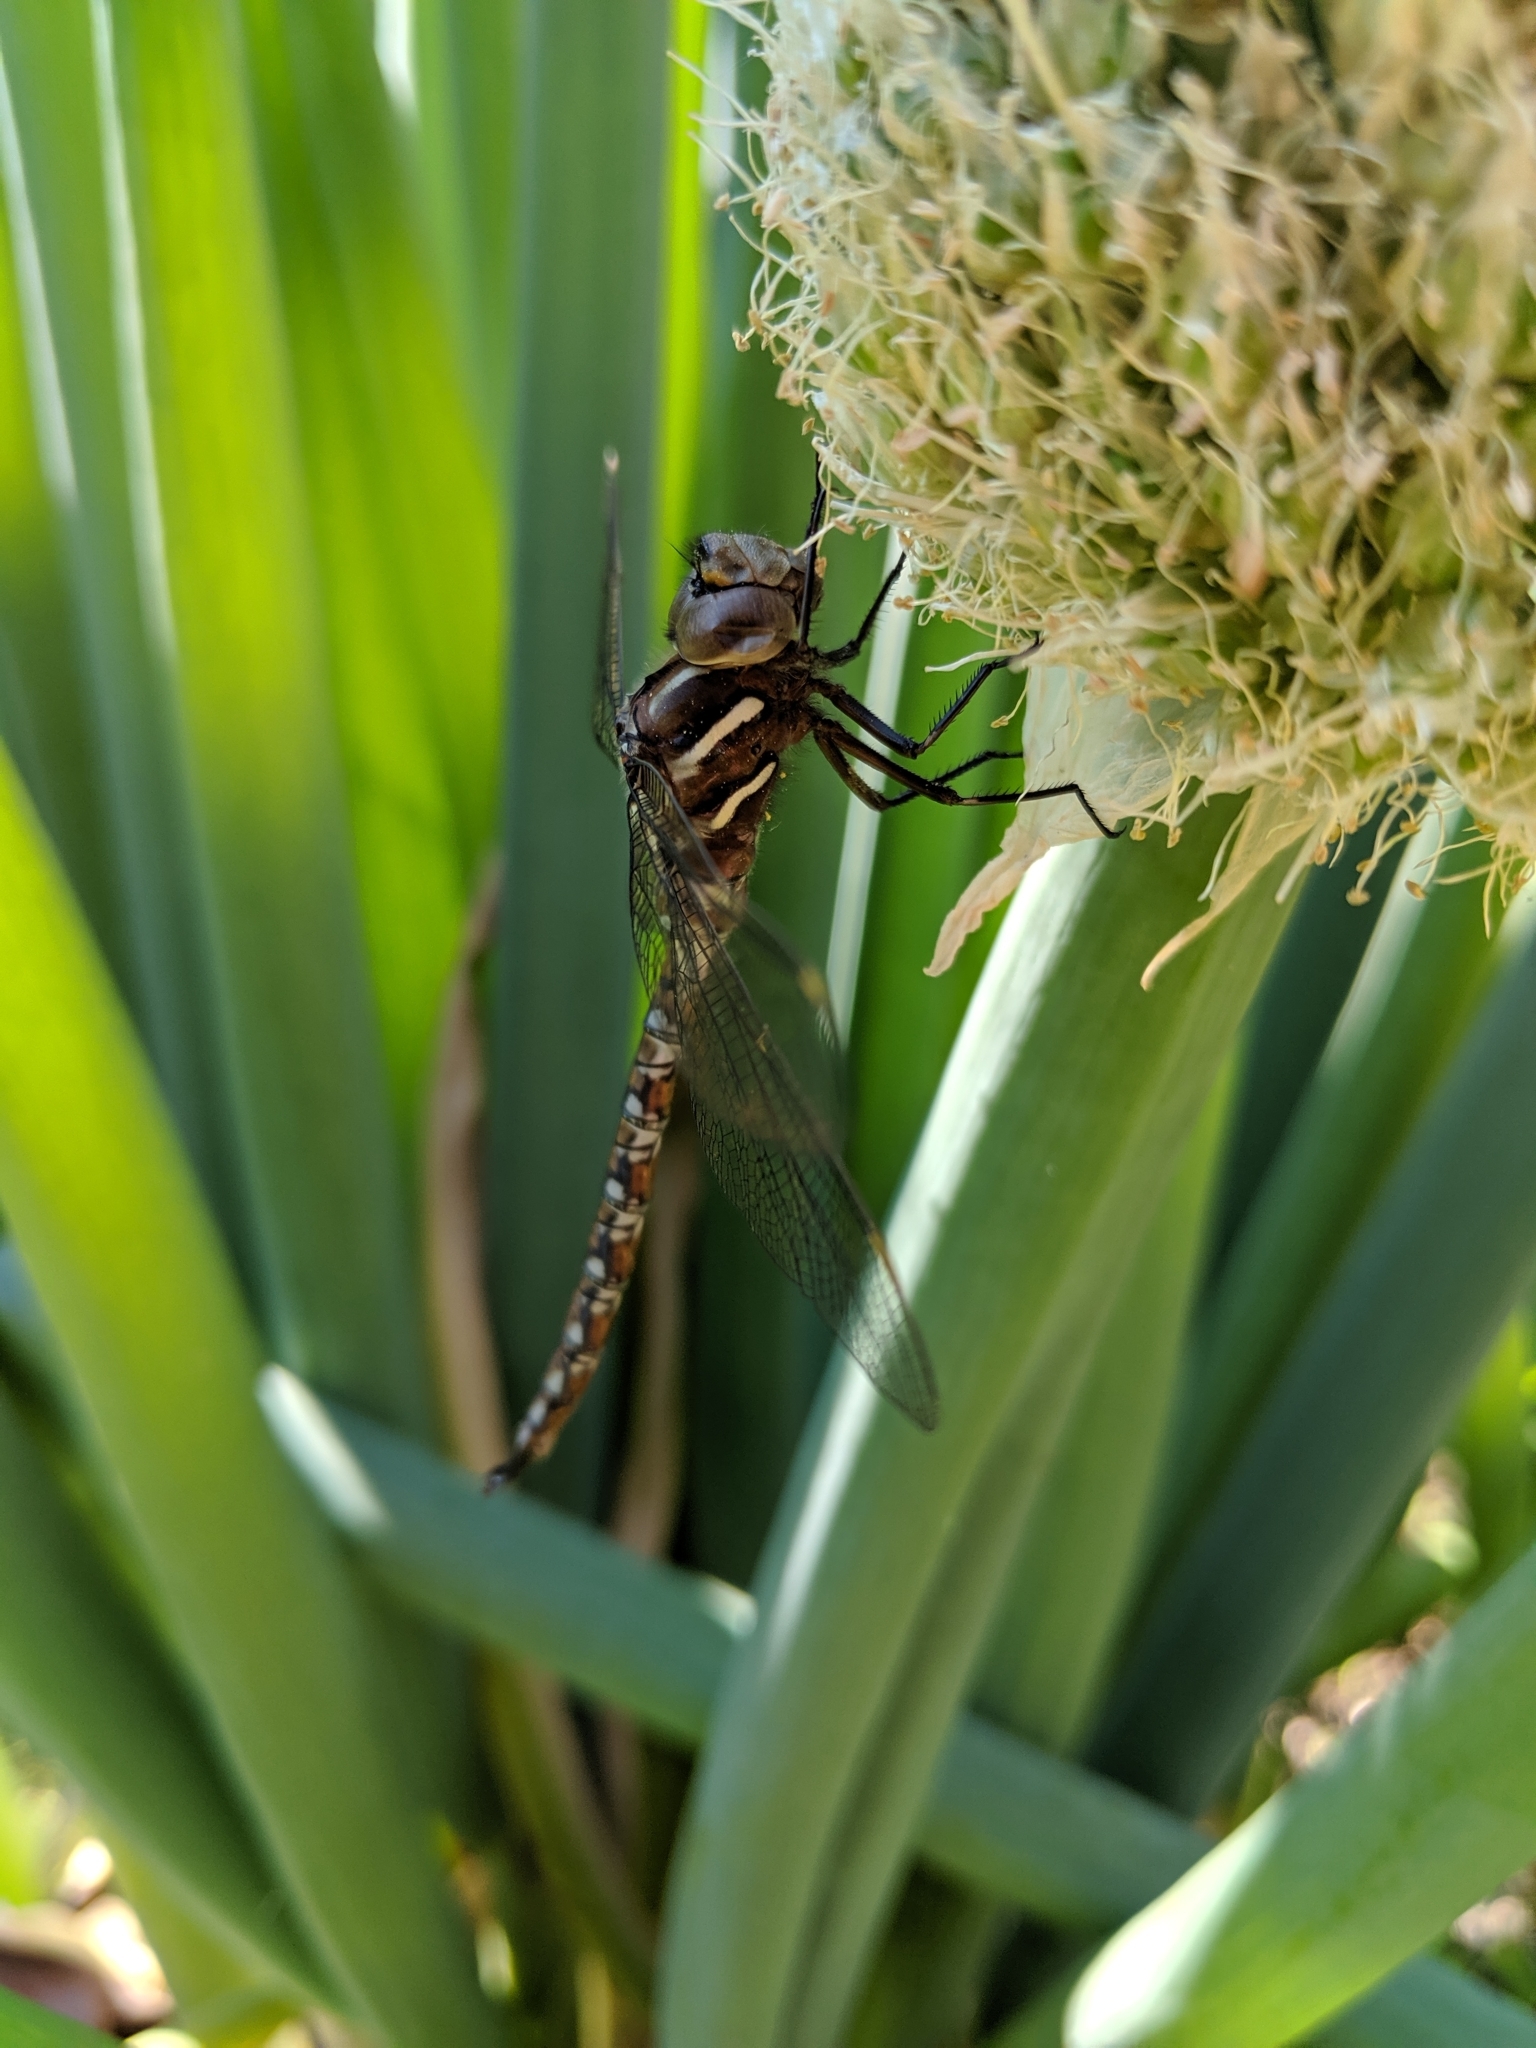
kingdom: Animalia
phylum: Arthropoda
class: Insecta
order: Odonata
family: Aeshnidae
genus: Basiaeschna
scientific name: Basiaeschna janata
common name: Springtime darner
